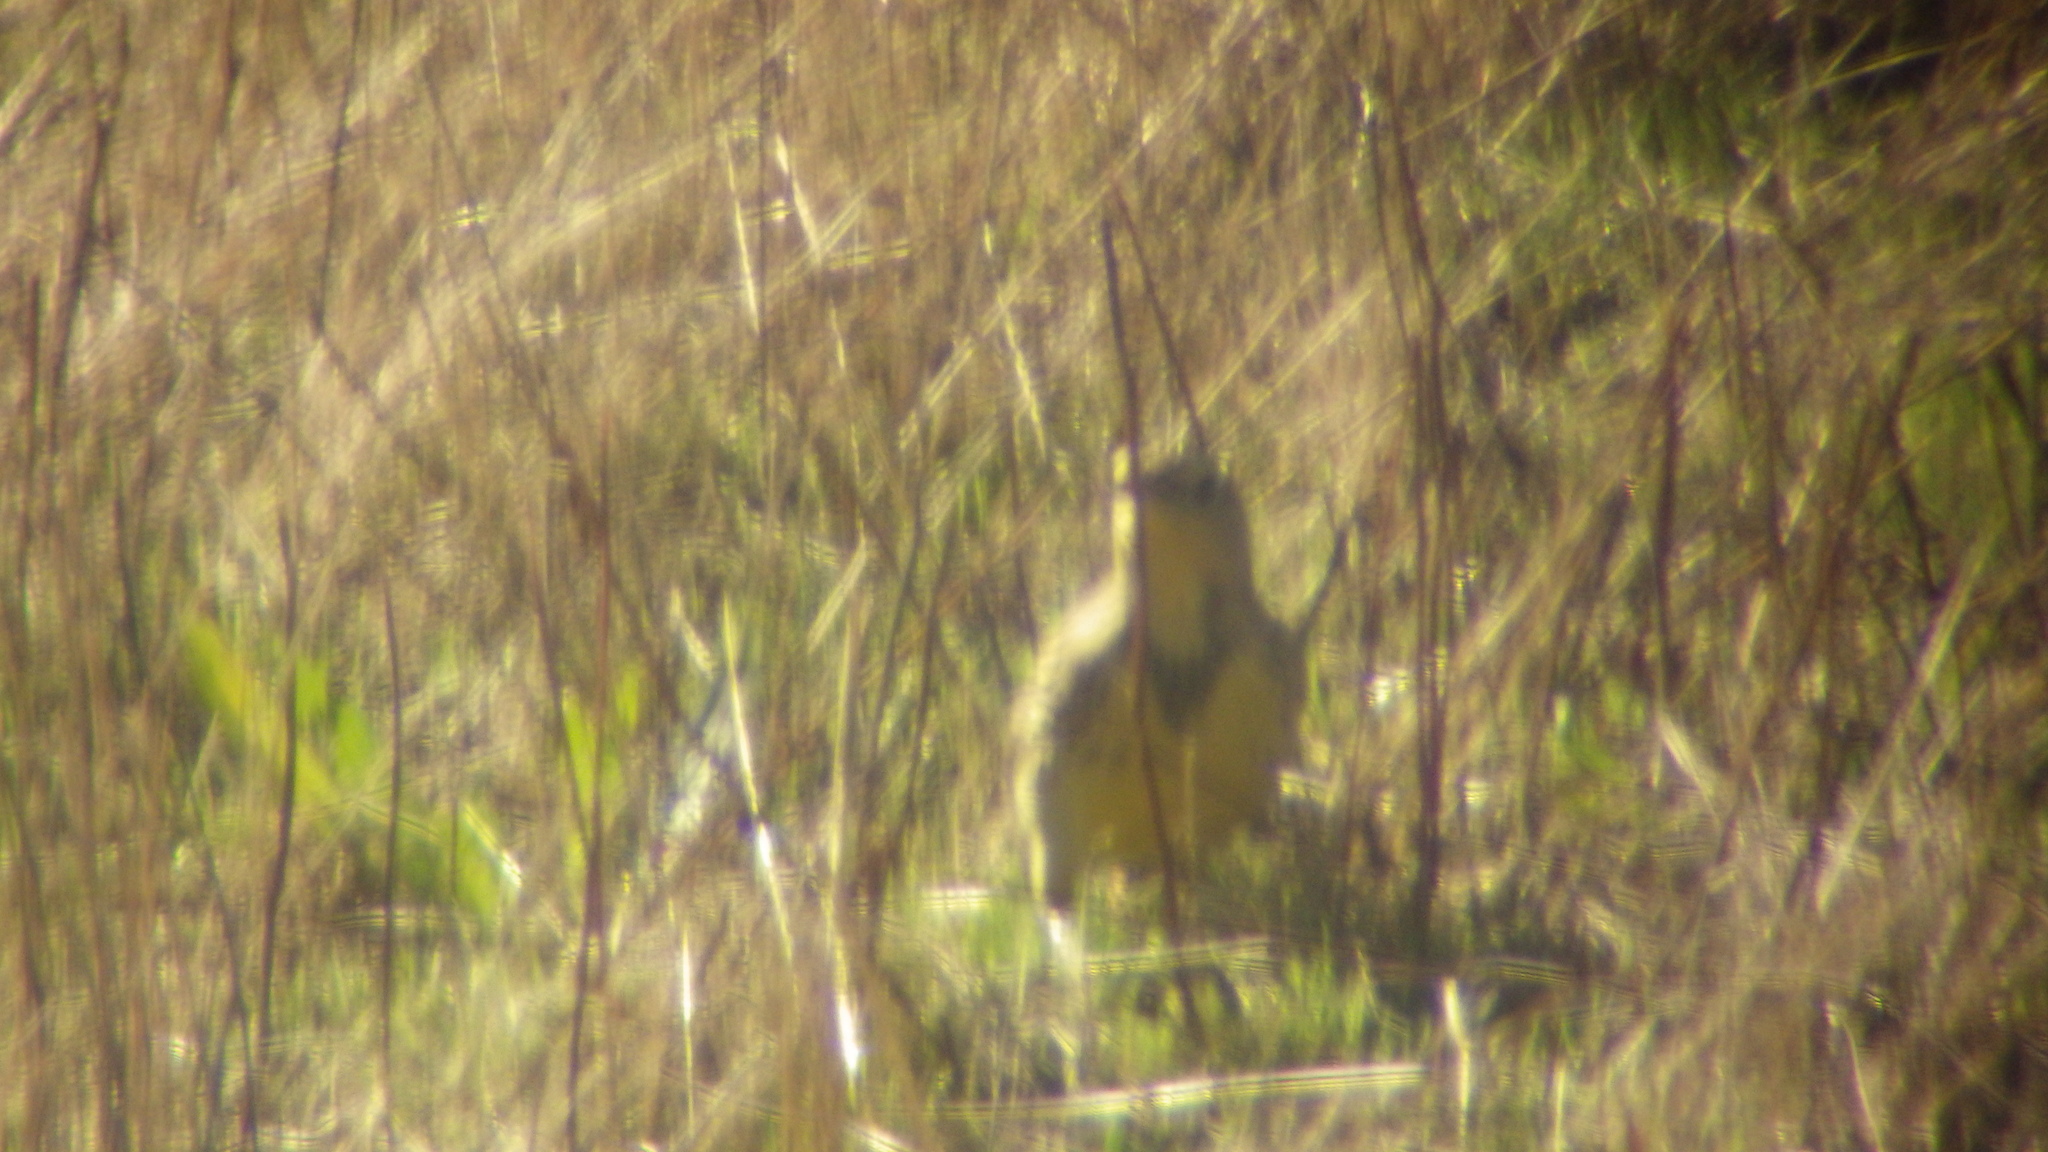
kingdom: Animalia
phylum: Chordata
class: Aves
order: Passeriformes
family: Icteridae
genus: Sturnella
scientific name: Sturnella neglecta
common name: Western meadowlark
